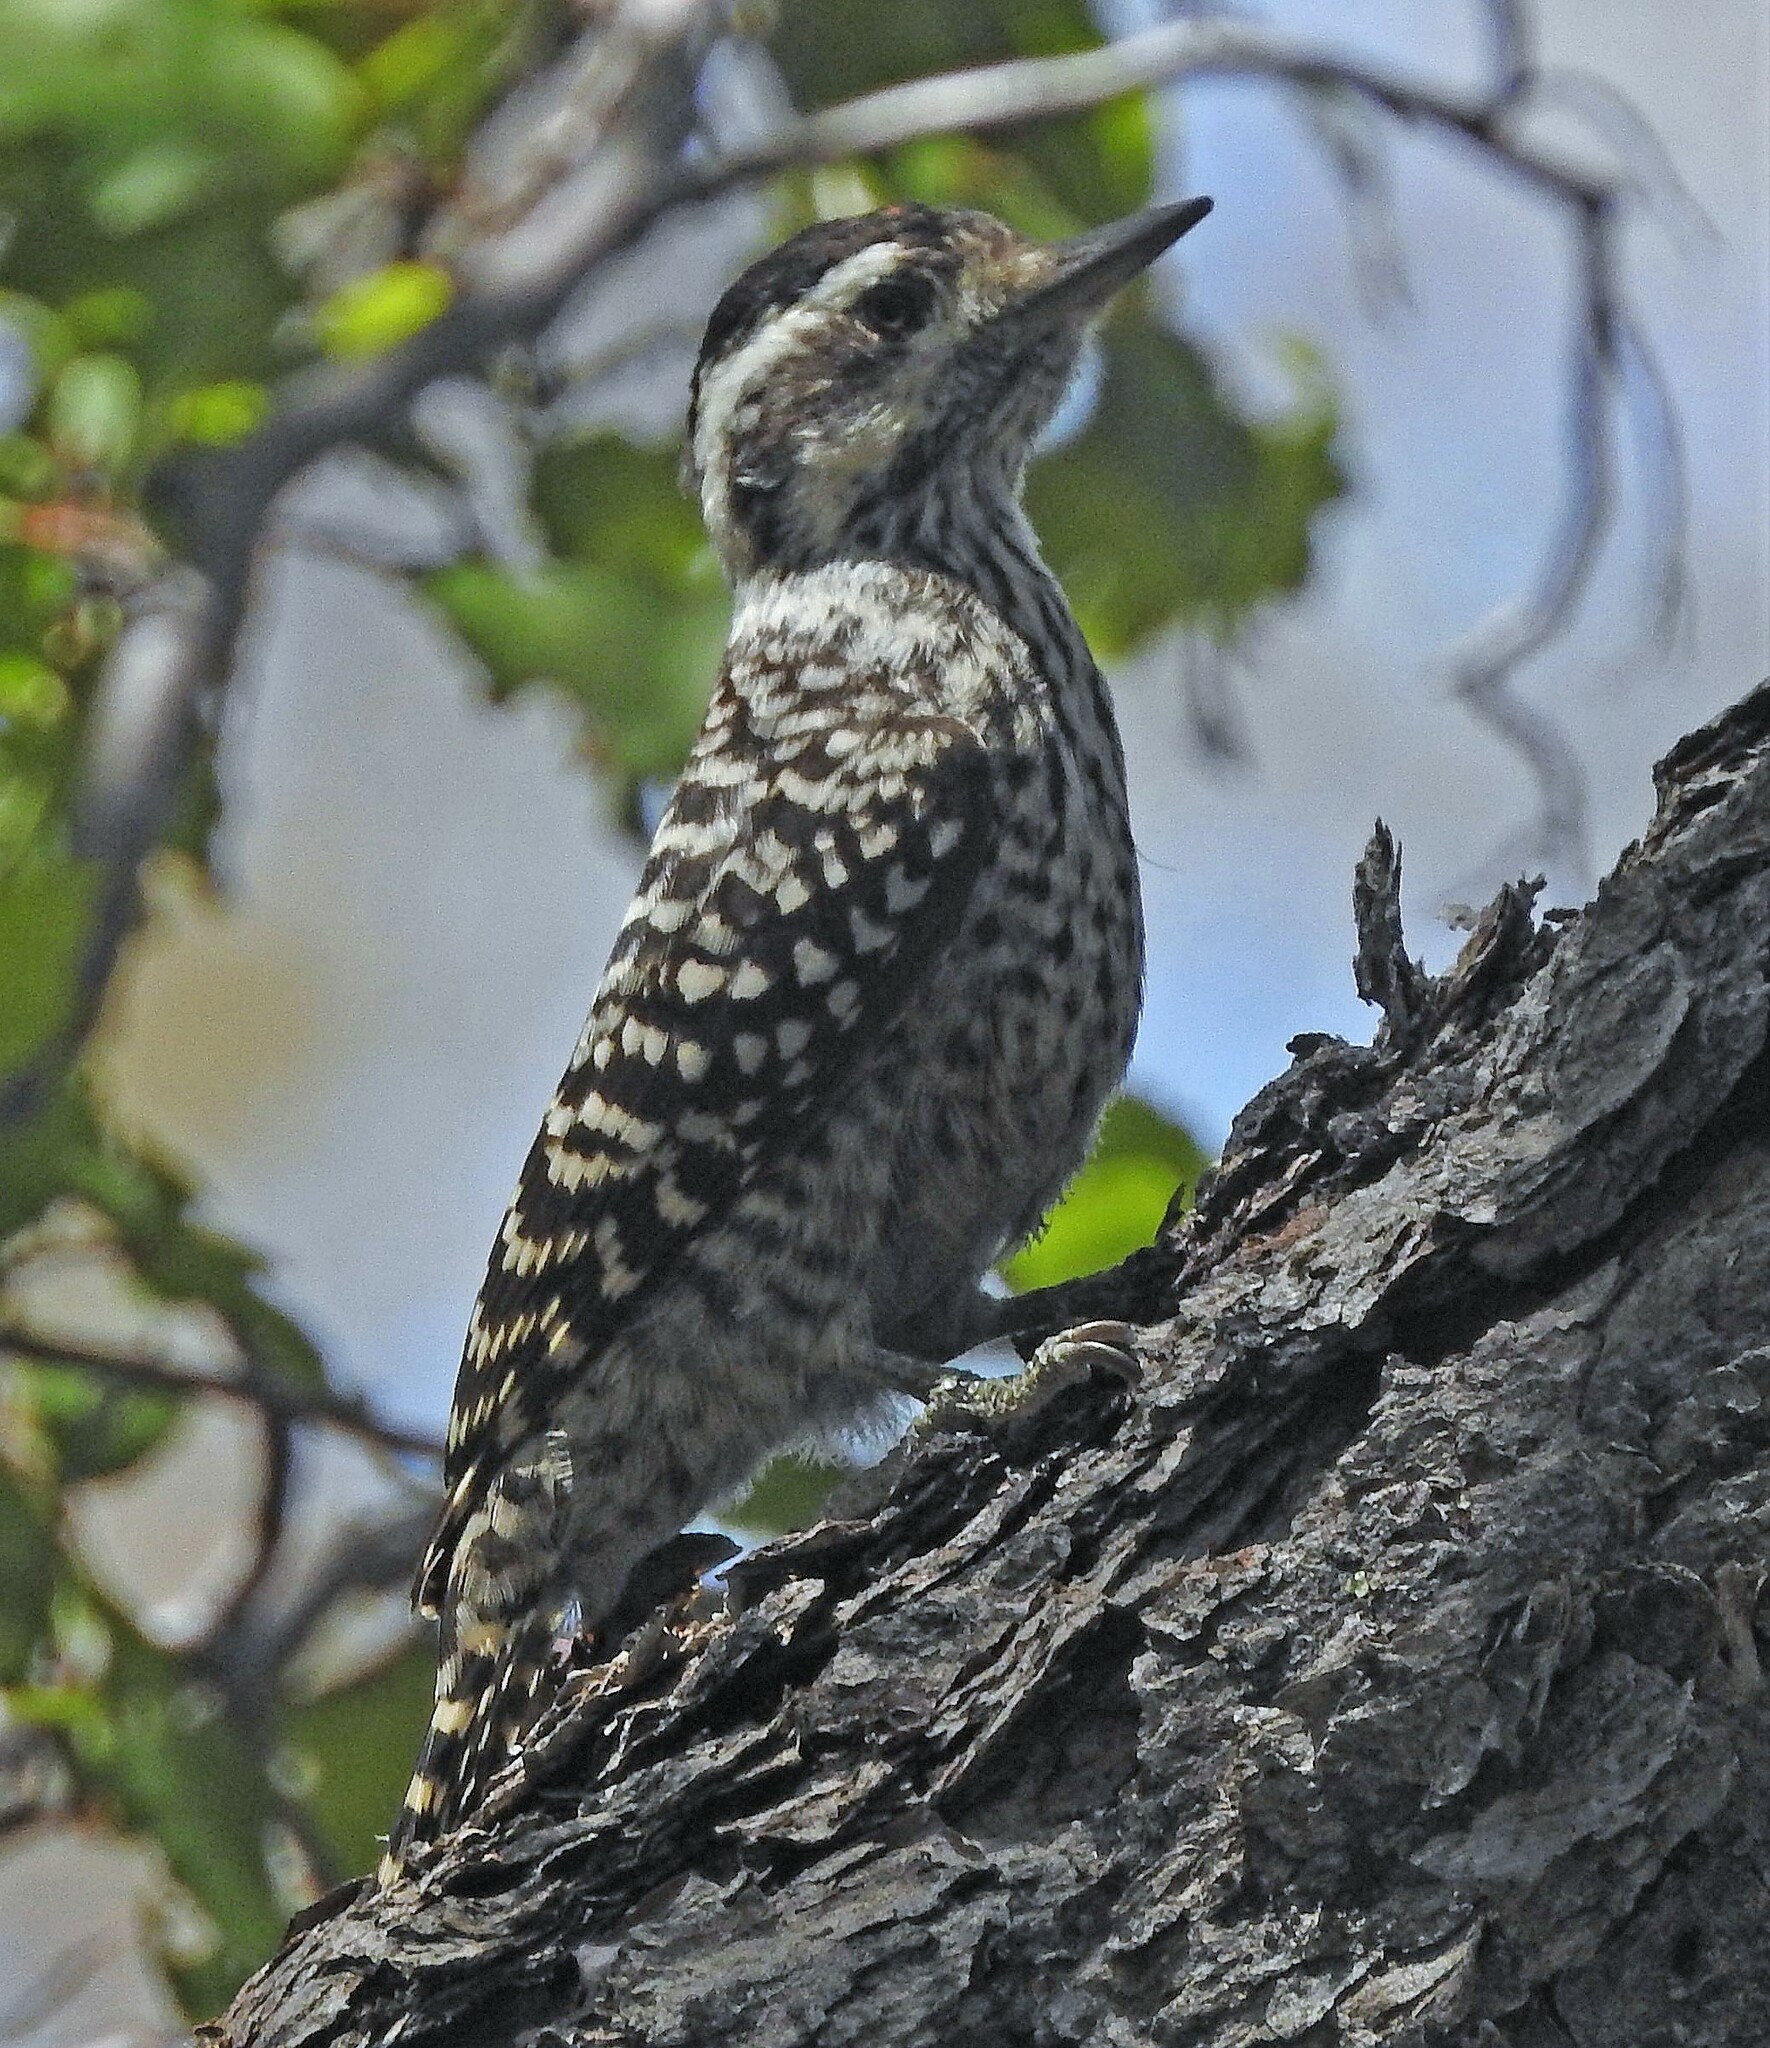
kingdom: Animalia
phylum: Chordata
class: Aves
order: Piciformes
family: Picidae
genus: Veniliornis
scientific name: Veniliornis lignarius
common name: Striped woodpecker
